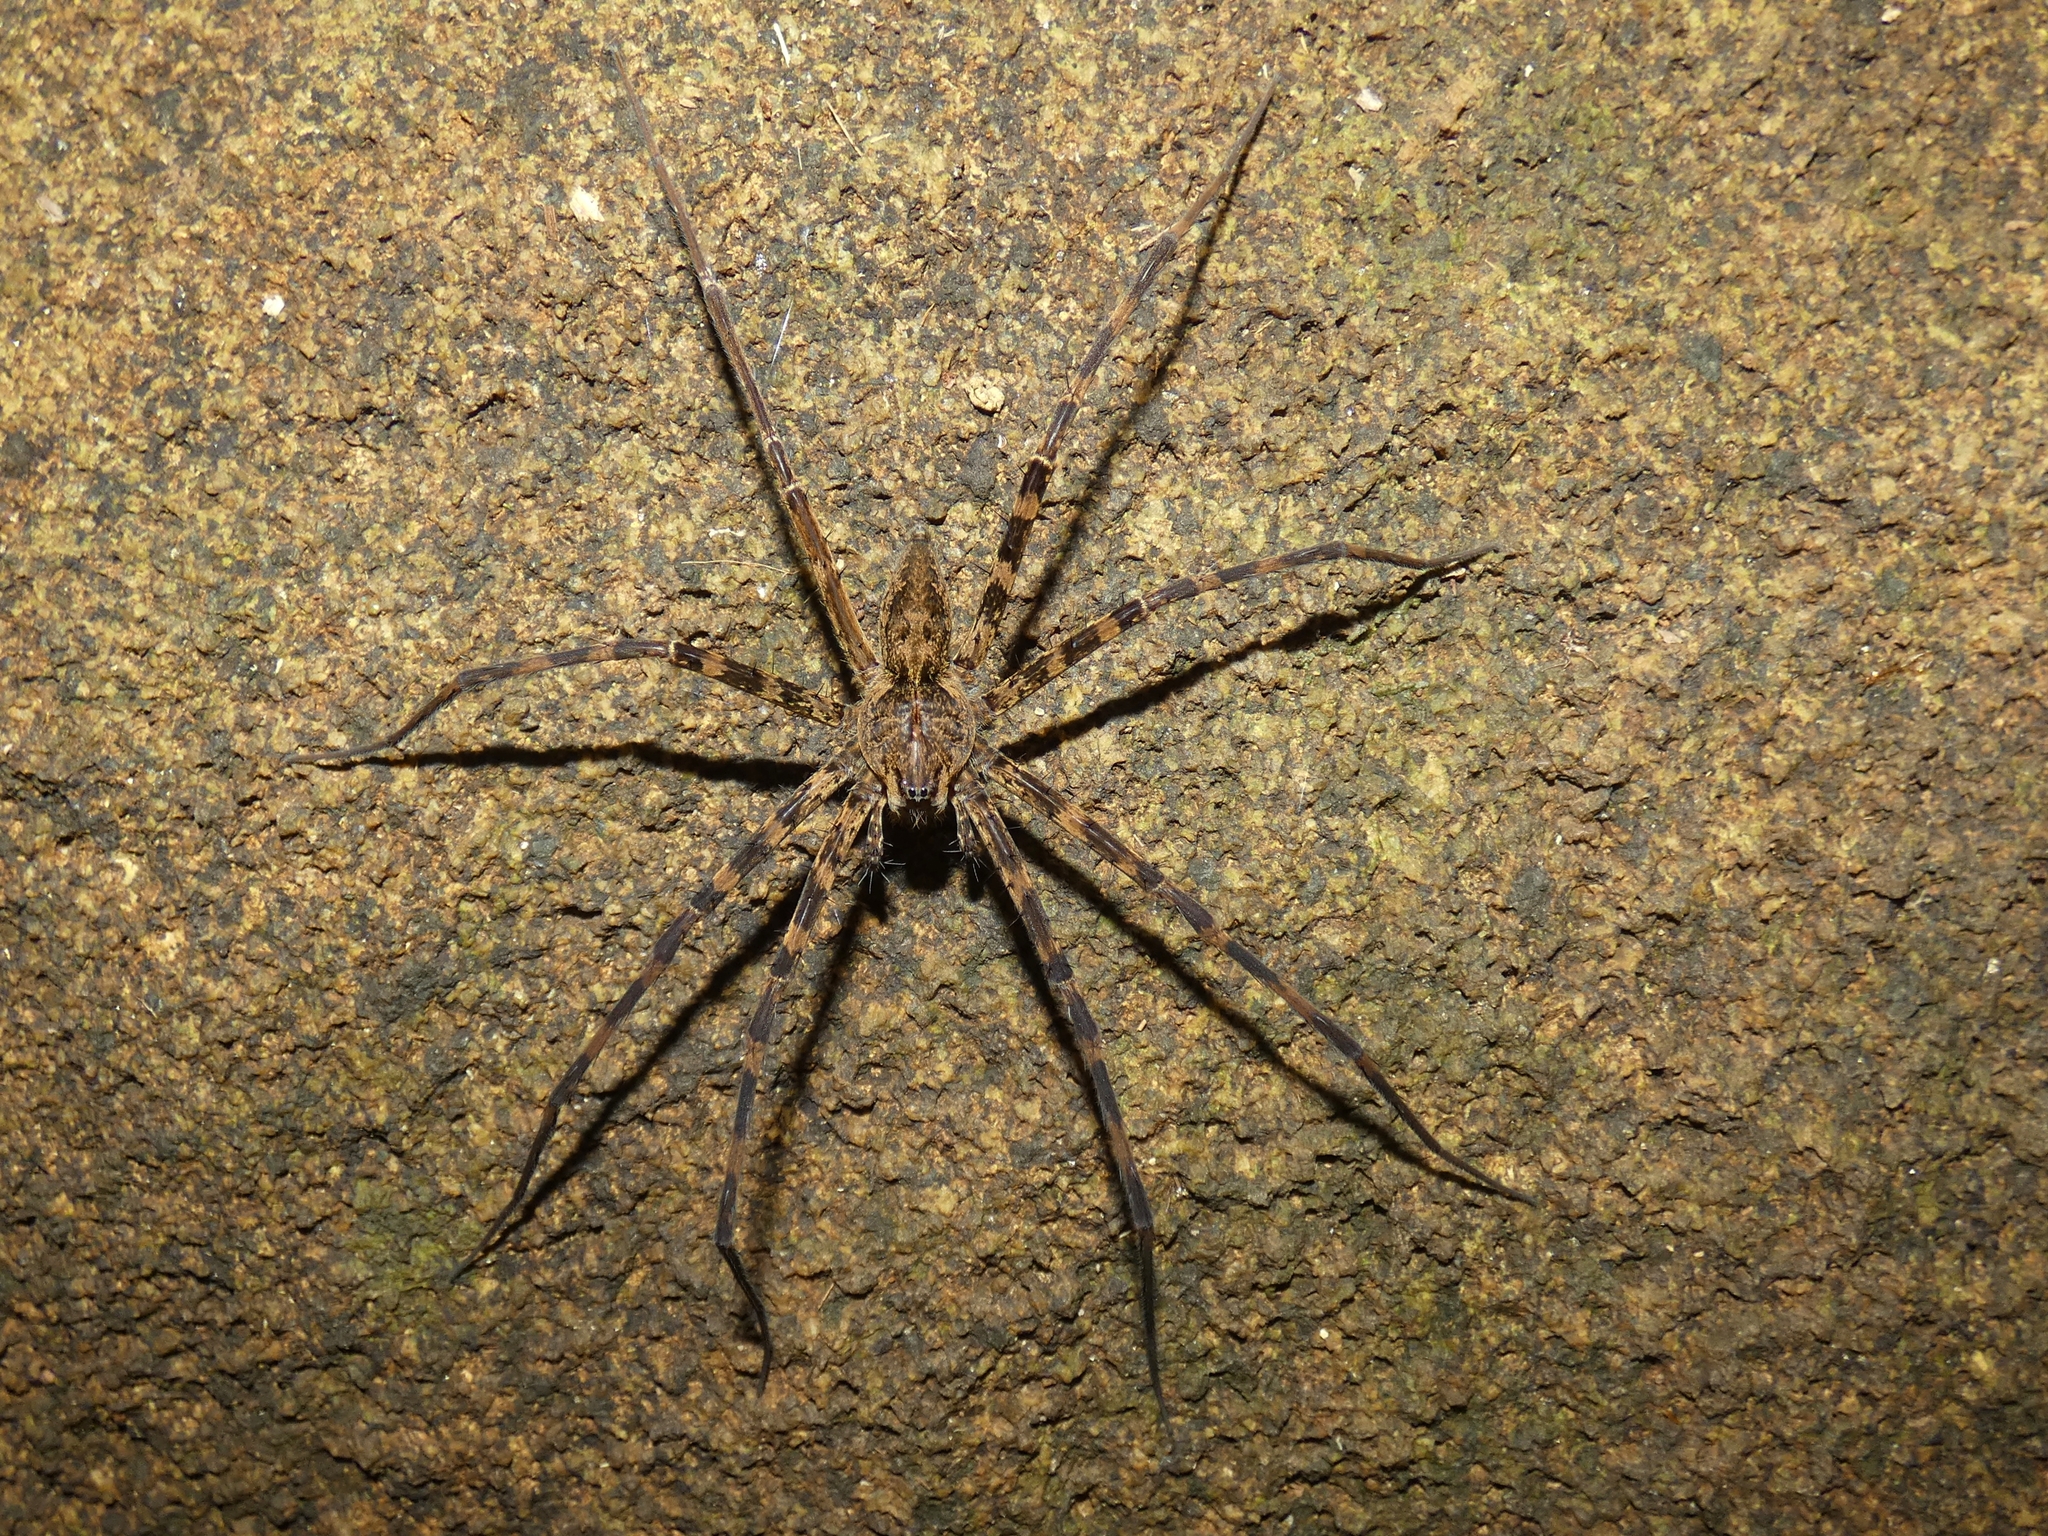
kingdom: Animalia
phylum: Arthropoda
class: Arachnida
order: Araneae
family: Pisauridae
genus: Megadolomedes
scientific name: Megadolomedes trux
